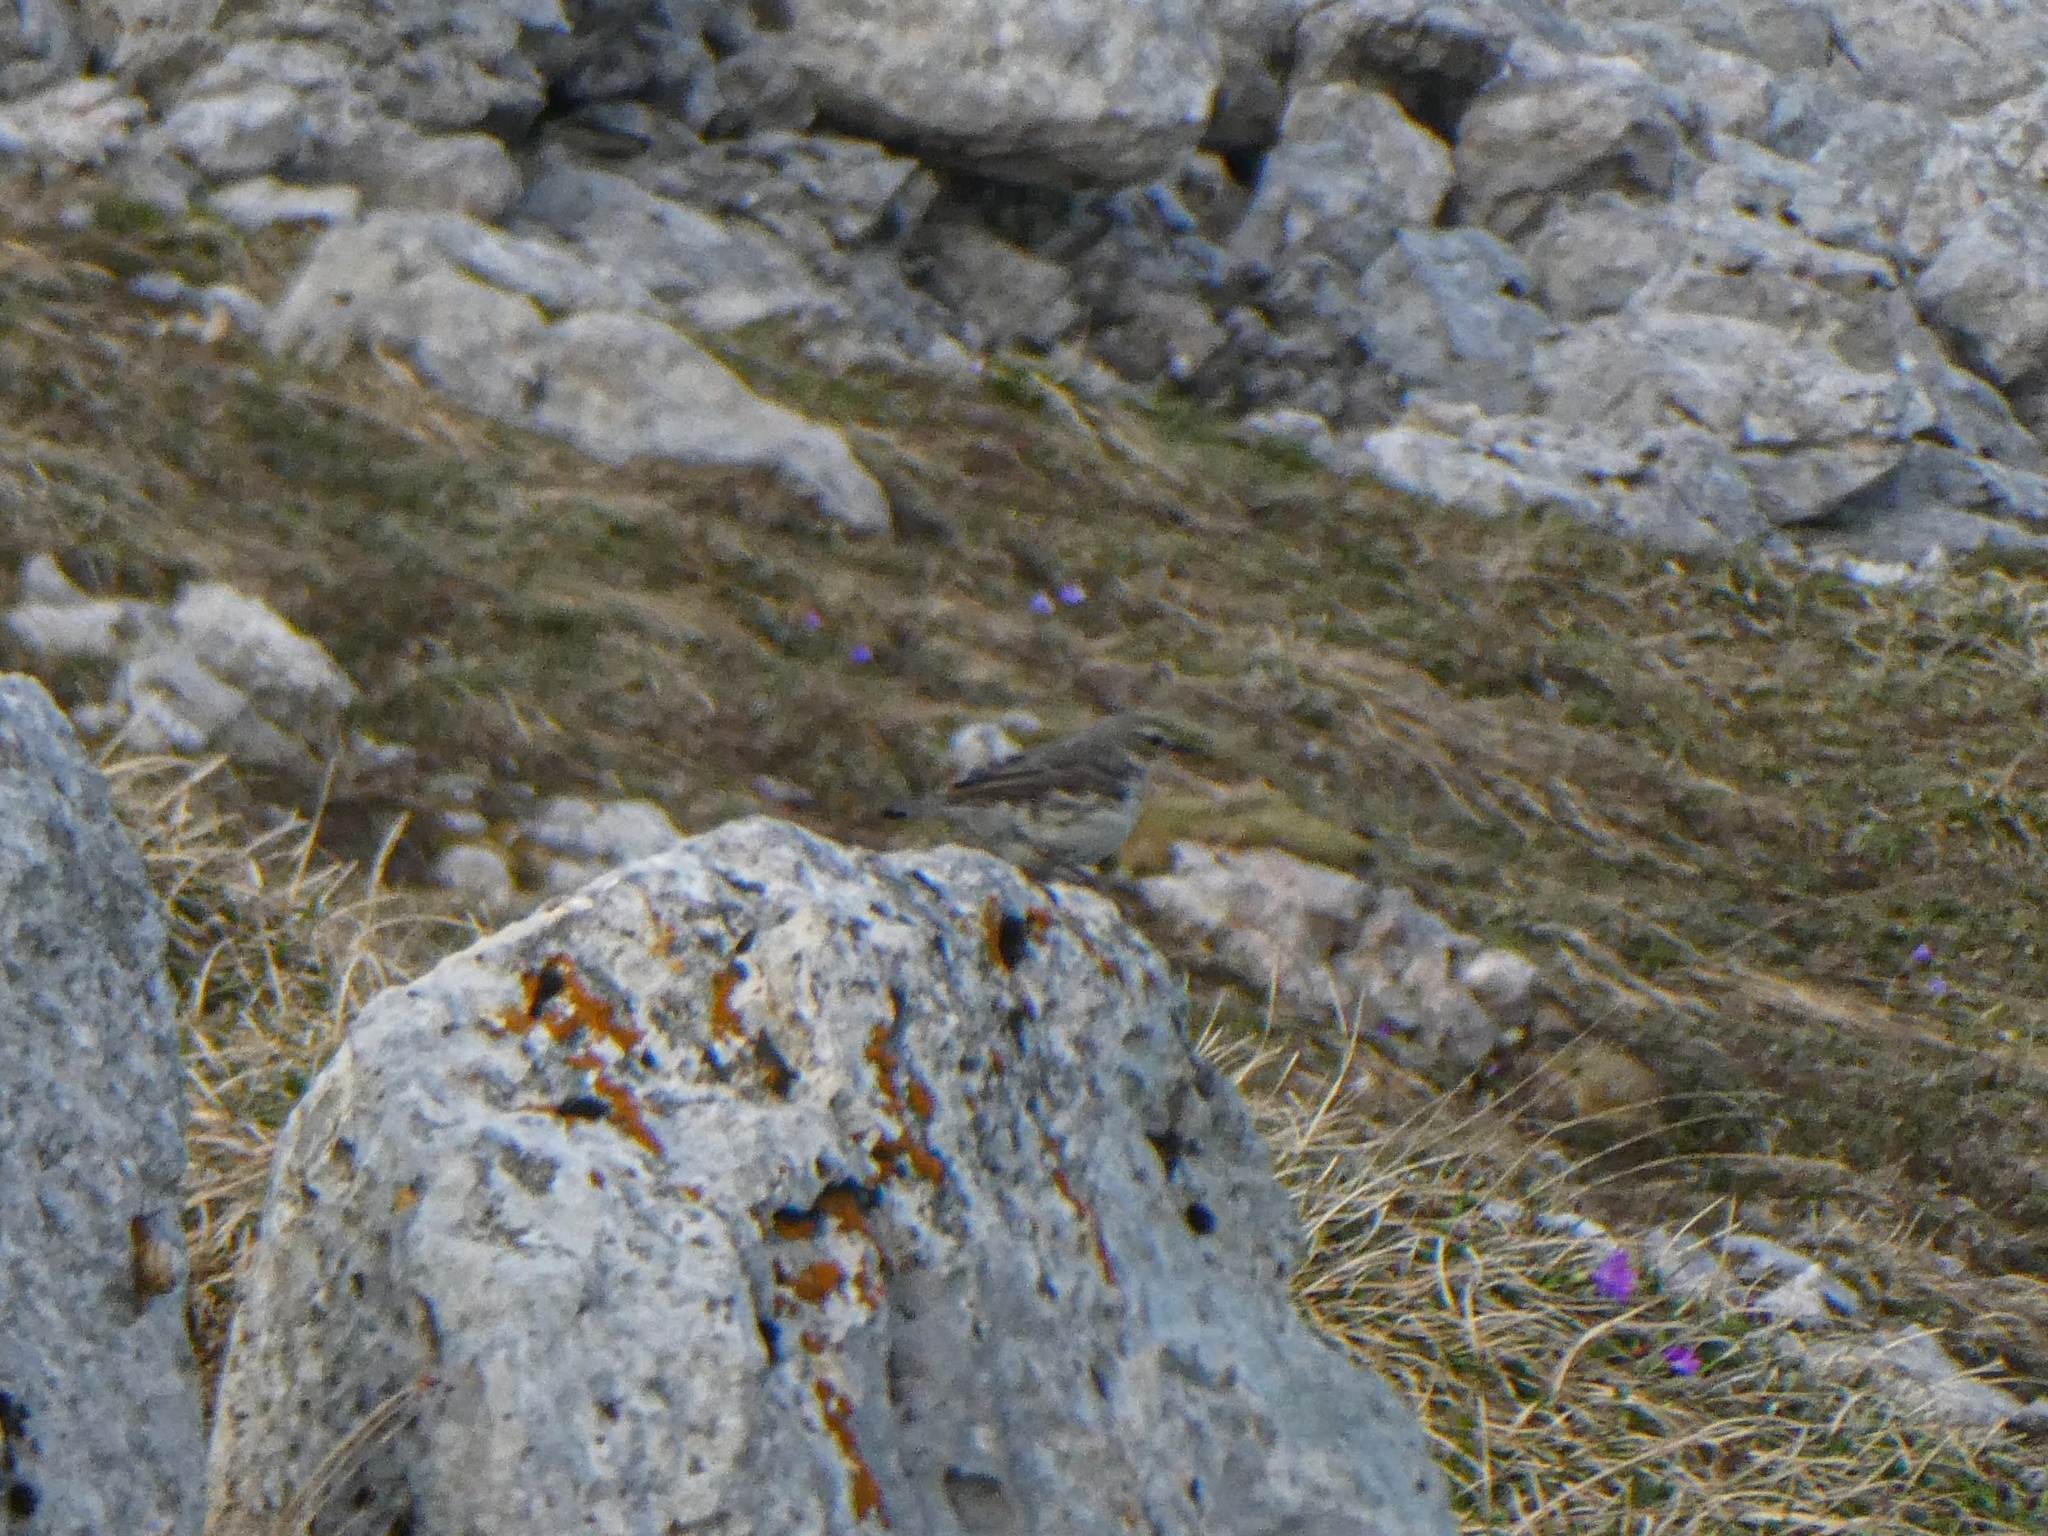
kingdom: Animalia
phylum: Chordata
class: Aves
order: Passeriformes
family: Motacillidae
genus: Anthus
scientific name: Anthus spinoletta
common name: Water pipit
